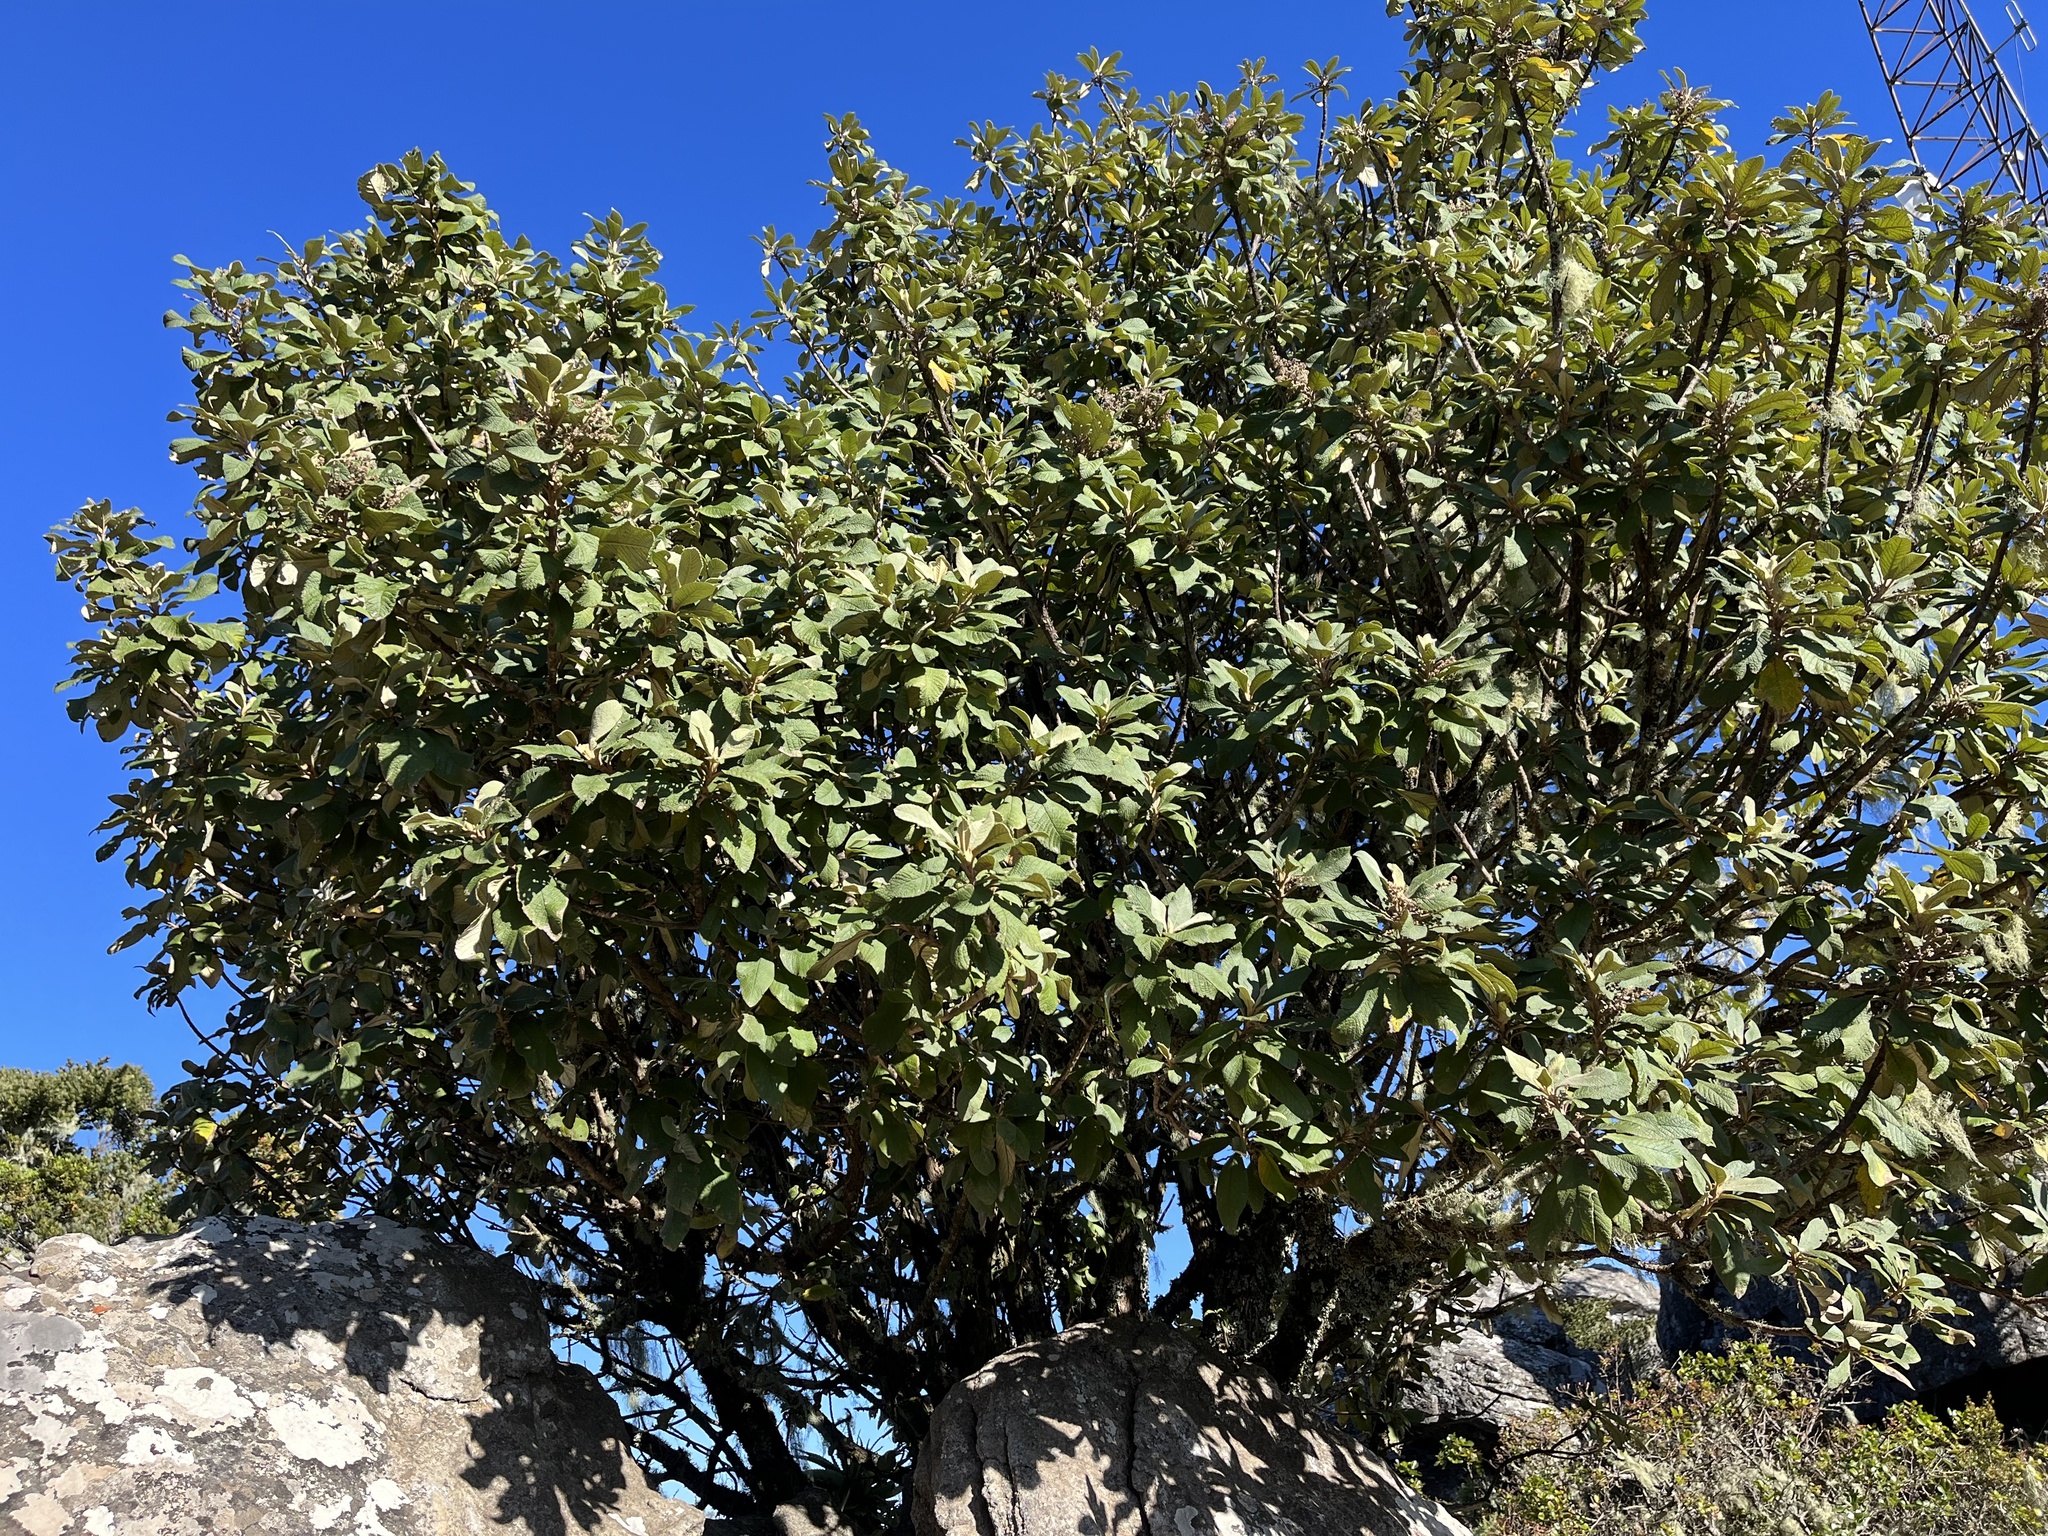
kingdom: Plantae
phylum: Tracheophyta
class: Magnoliopsida
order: Asterales
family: Asteraceae
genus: Tarchonanthus
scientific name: Tarchonanthus trilobus
